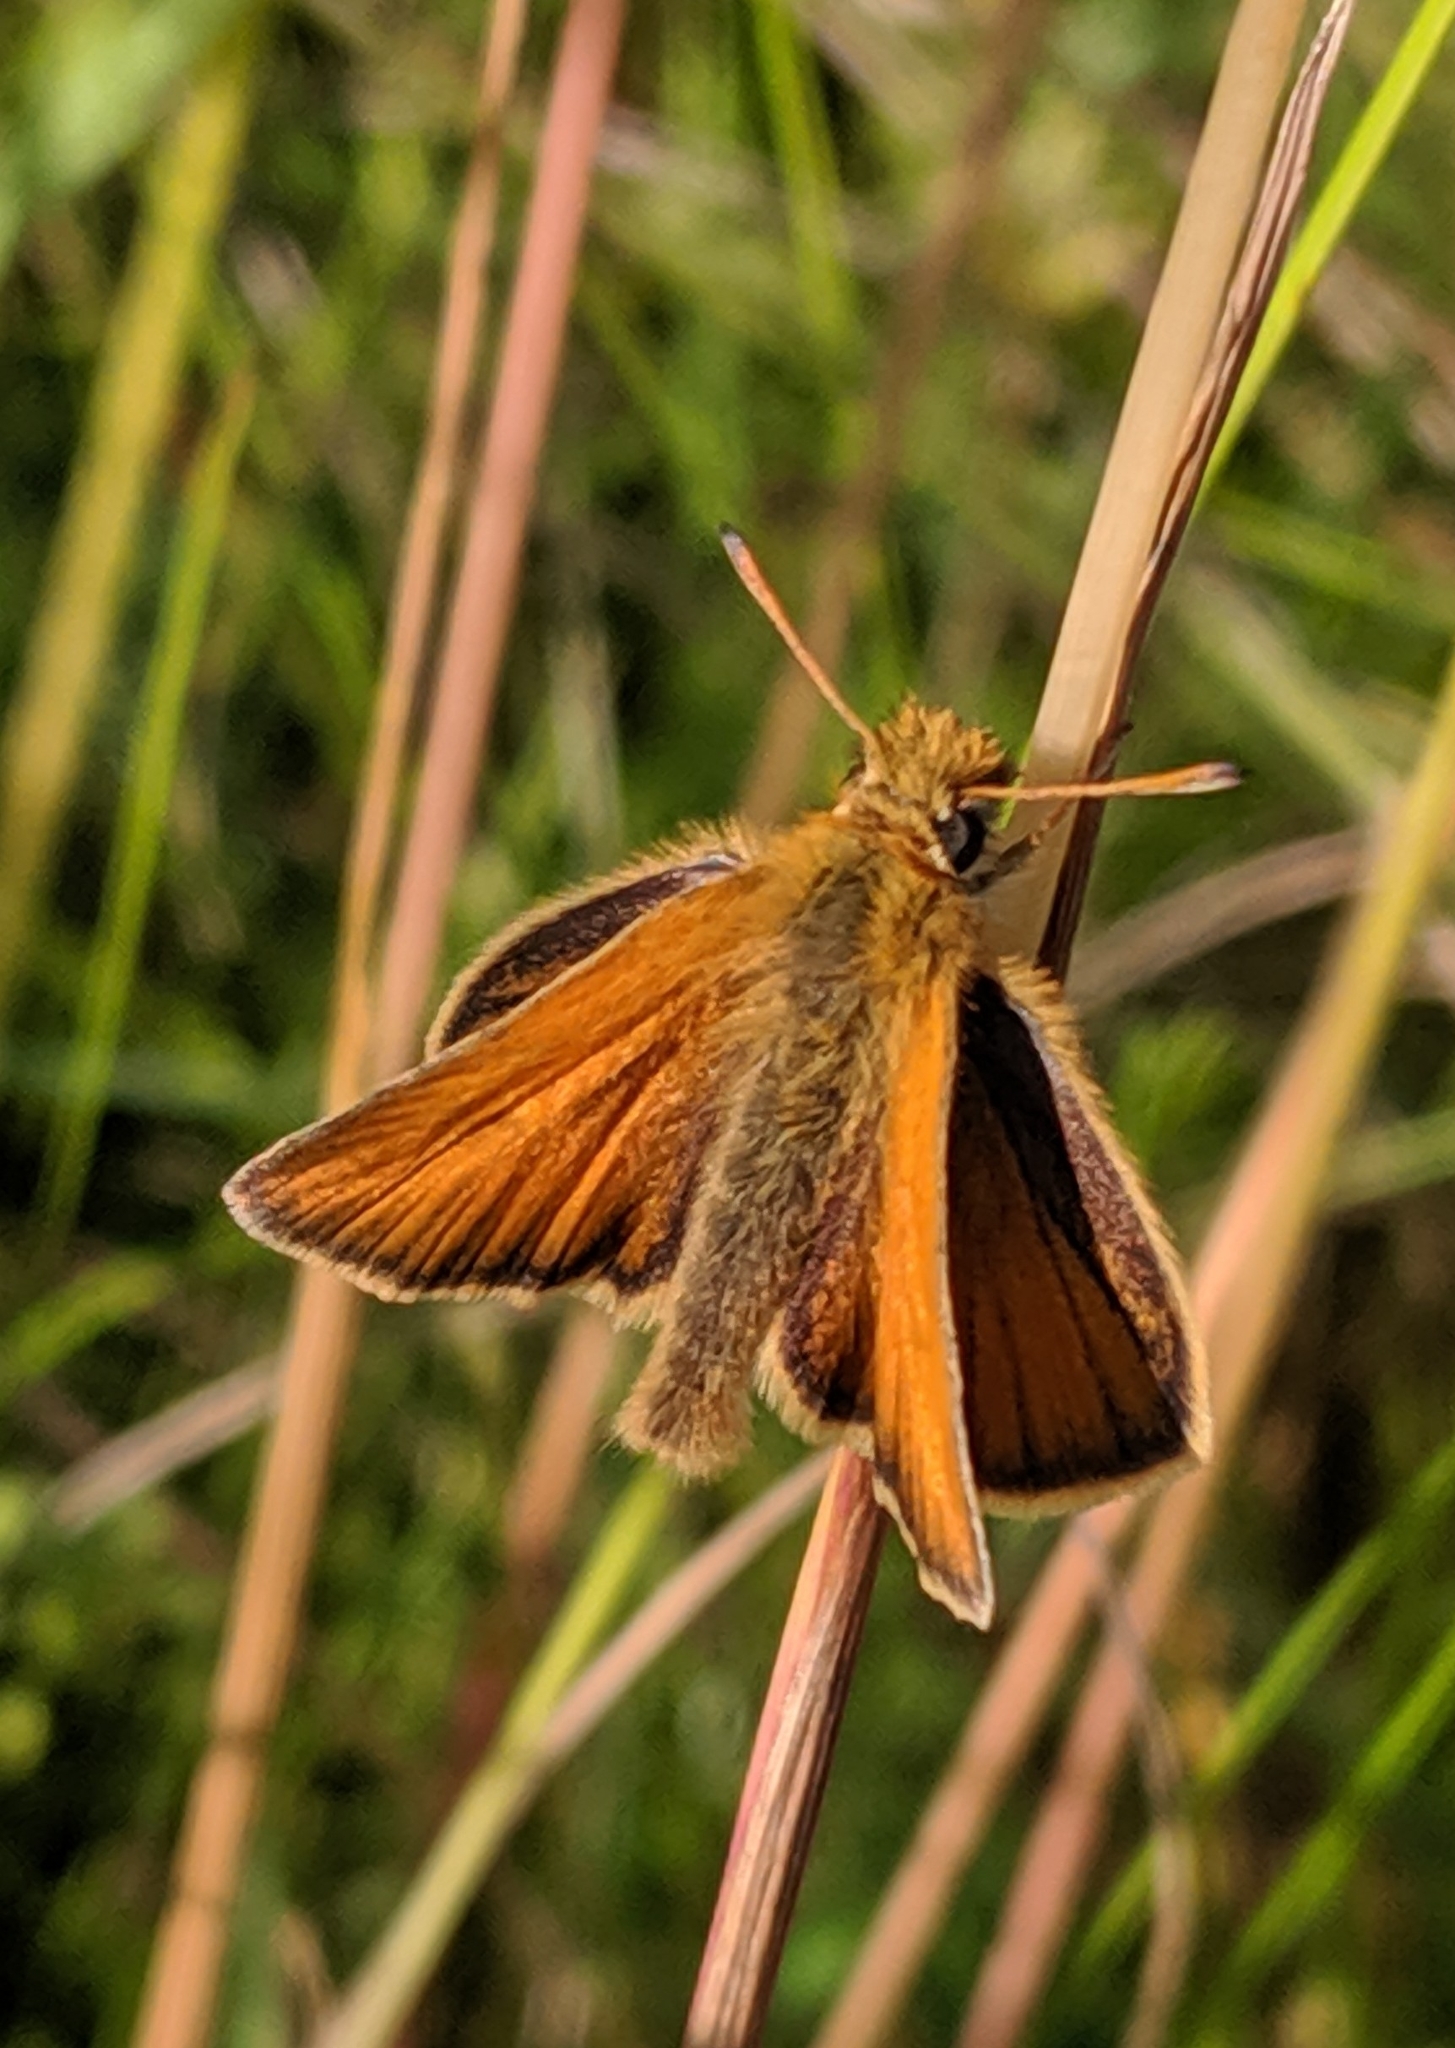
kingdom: Animalia
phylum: Arthropoda
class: Insecta
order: Lepidoptera
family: Hesperiidae
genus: Thymelicus
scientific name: Thymelicus lineola
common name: Essex skipper
